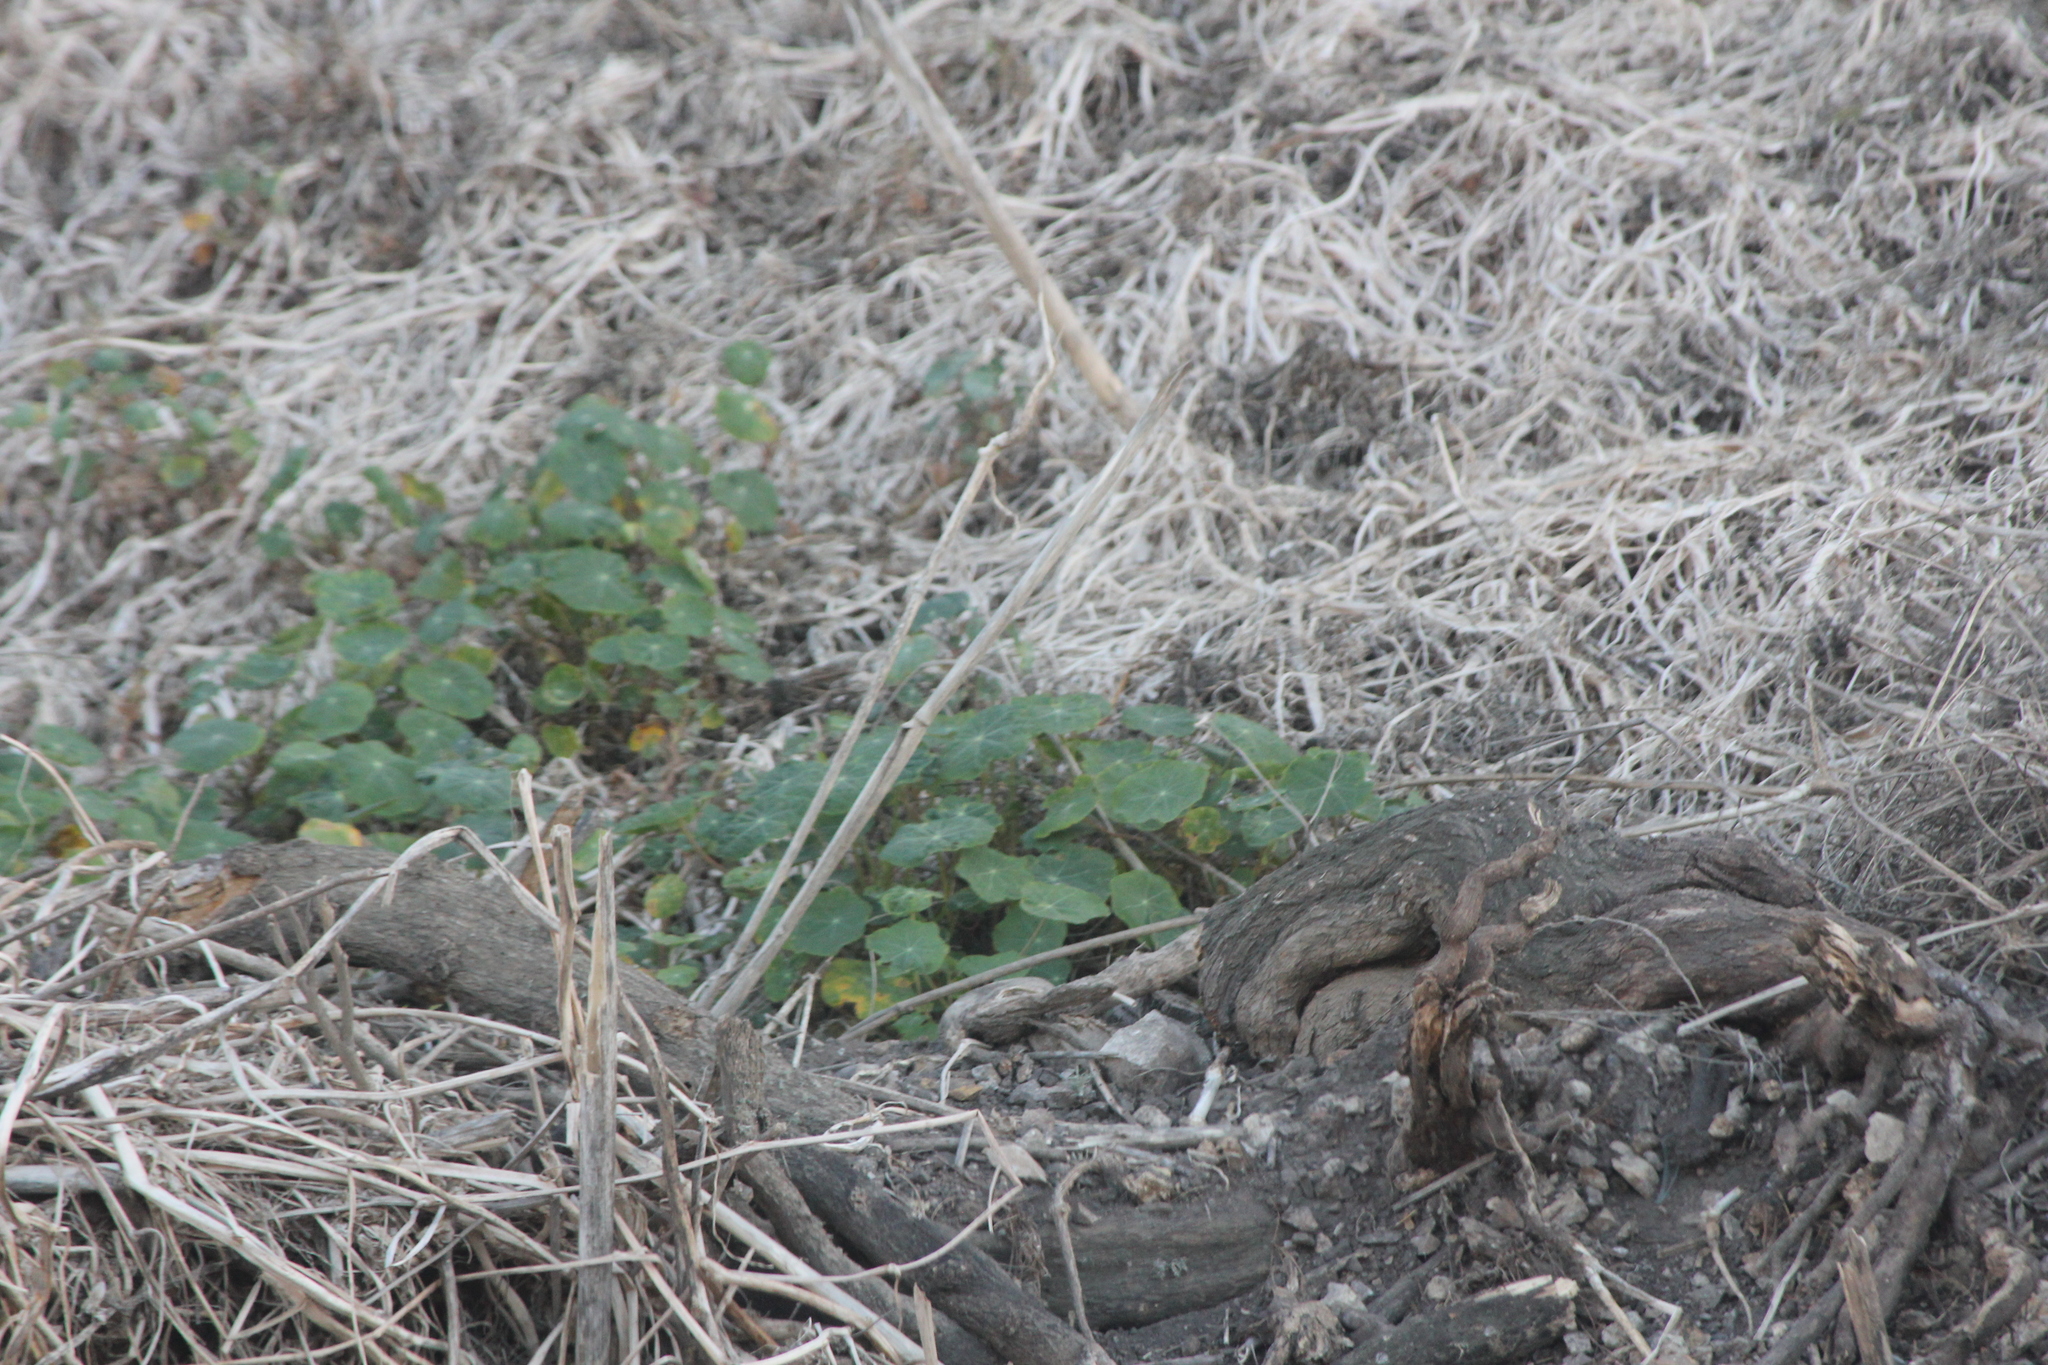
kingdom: Plantae
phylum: Tracheophyta
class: Magnoliopsida
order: Brassicales
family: Tropaeolaceae
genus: Tropaeolum
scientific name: Tropaeolum majus
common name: Nasturtium
